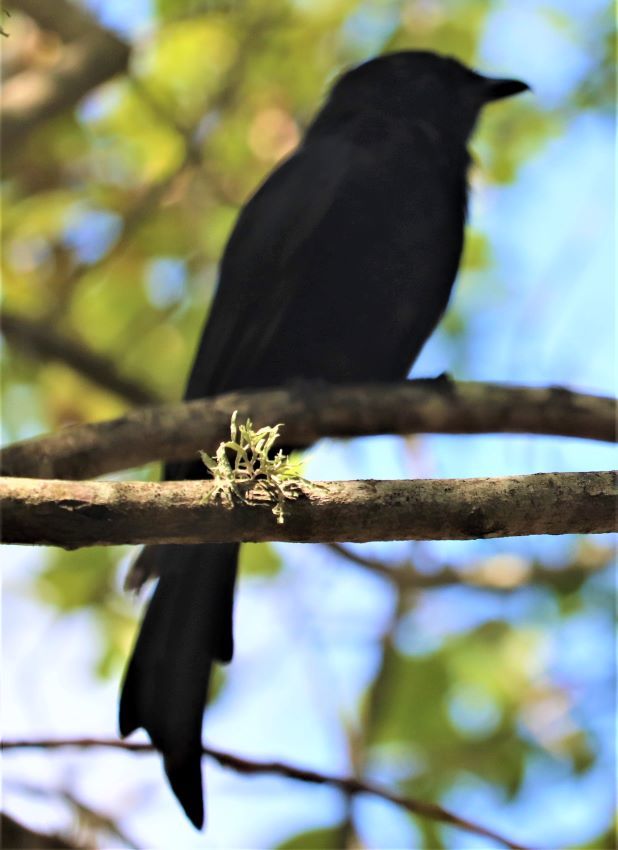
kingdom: Animalia
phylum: Chordata
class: Aves
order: Passeriformes
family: Dicruridae
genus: Dicrurus
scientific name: Dicrurus adsimilis
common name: Fork-tailed drongo
